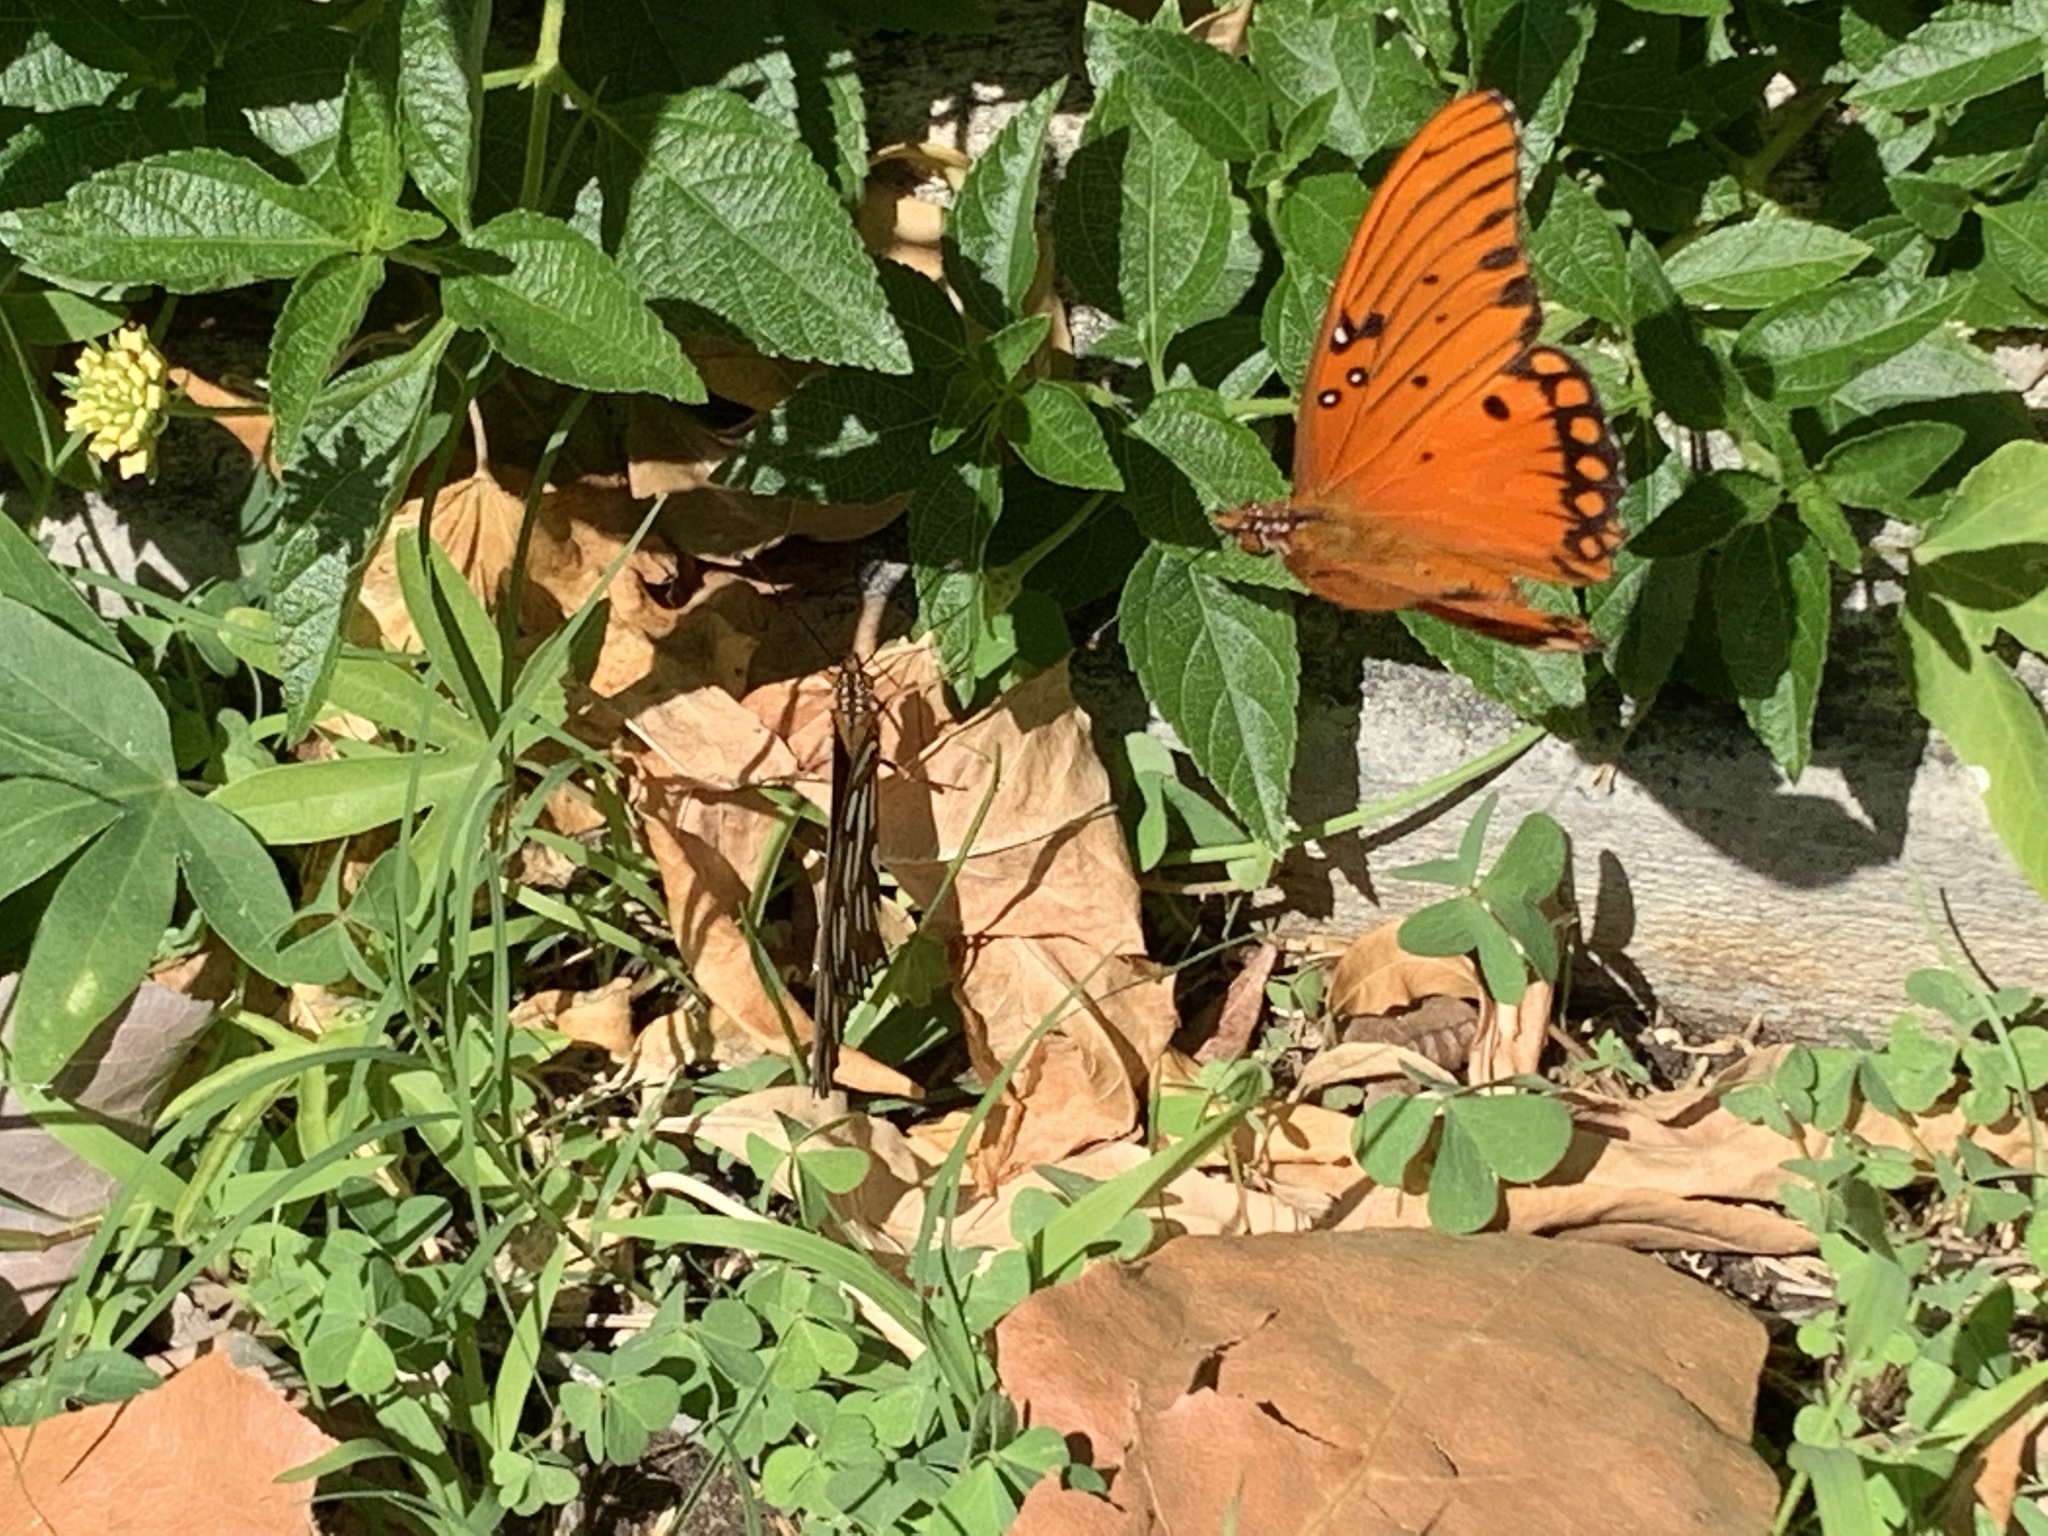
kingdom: Animalia
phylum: Arthropoda
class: Insecta
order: Lepidoptera
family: Nymphalidae
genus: Dione
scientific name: Dione vanillae
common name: Gulf fritillary
